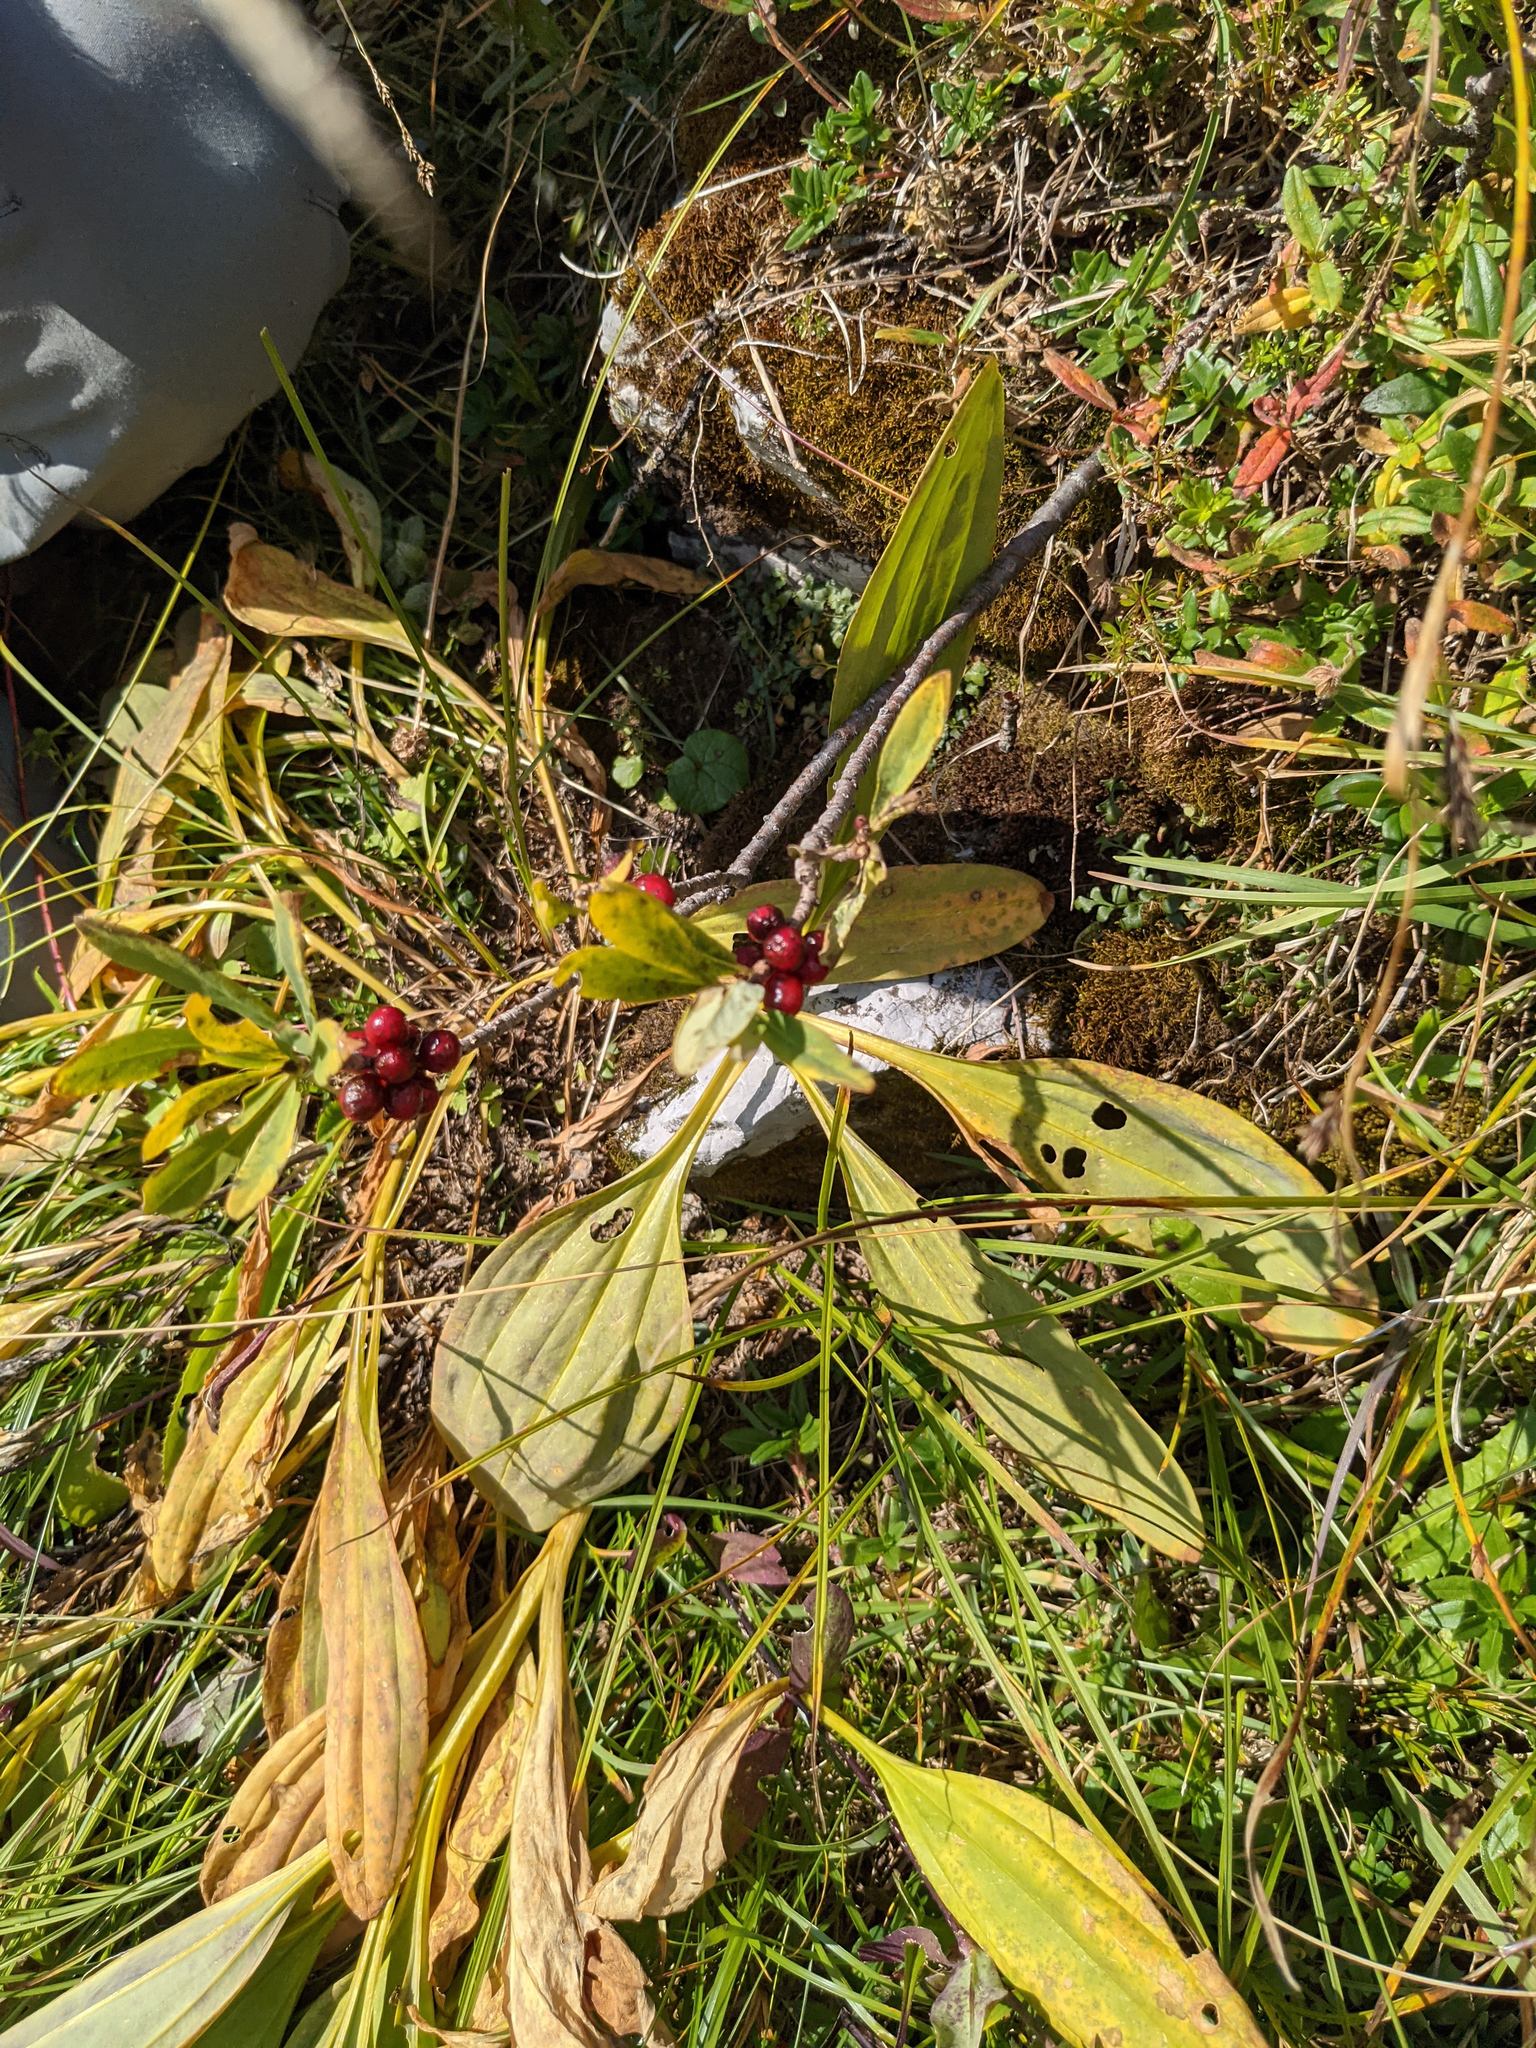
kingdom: Plantae
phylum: Tracheophyta
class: Magnoliopsida
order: Malvales
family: Thymelaeaceae
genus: Daphne
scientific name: Daphne mezereum
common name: Mezereon
